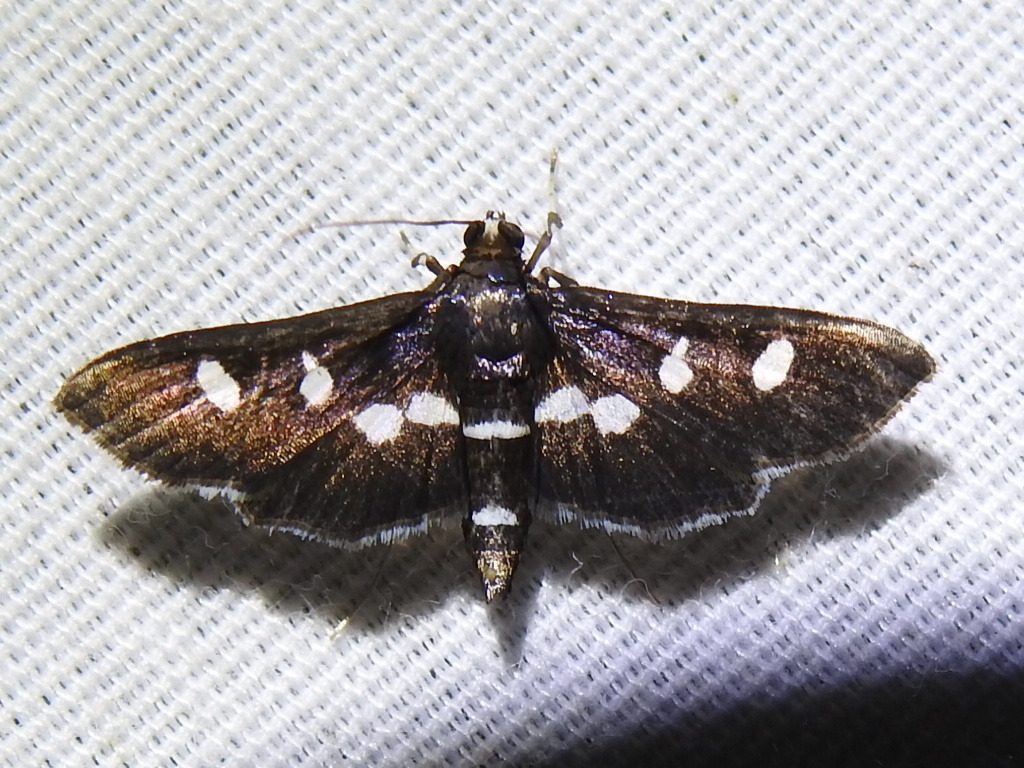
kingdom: Animalia
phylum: Arthropoda
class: Insecta
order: Lepidoptera
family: Crambidae
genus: Desmia
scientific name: Desmia funeralis
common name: Grape leaf folder moth
